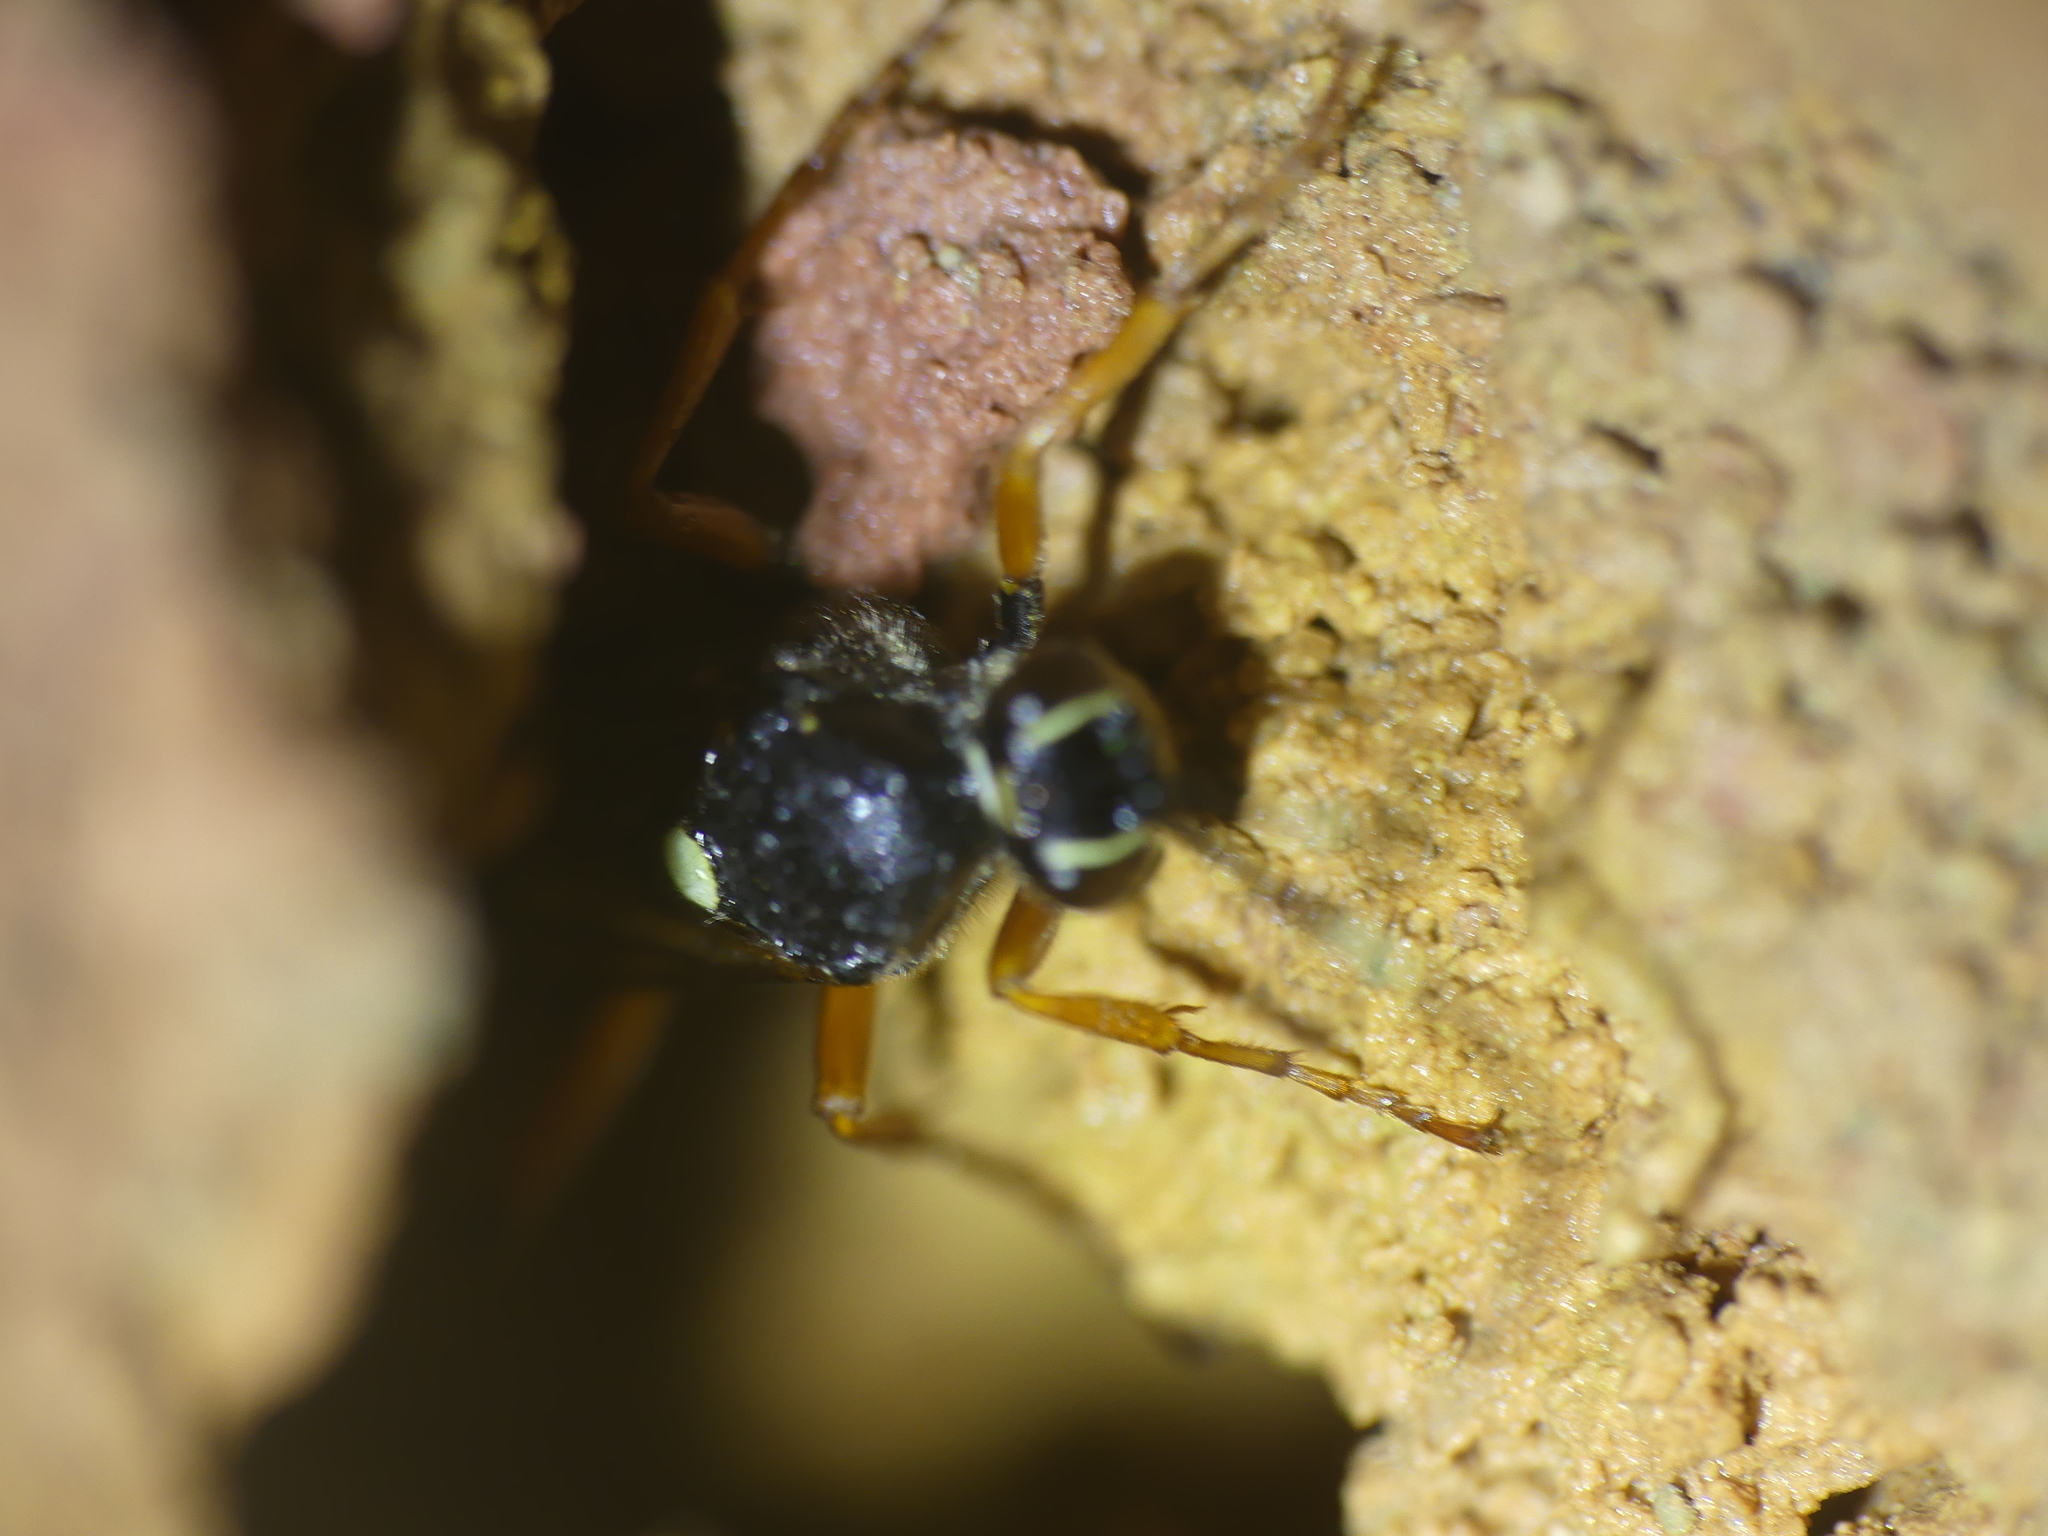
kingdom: Animalia
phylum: Arthropoda
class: Insecta
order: Hymenoptera
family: Ichneumonidae
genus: Diphyus
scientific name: Diphyus quadripunctorius
